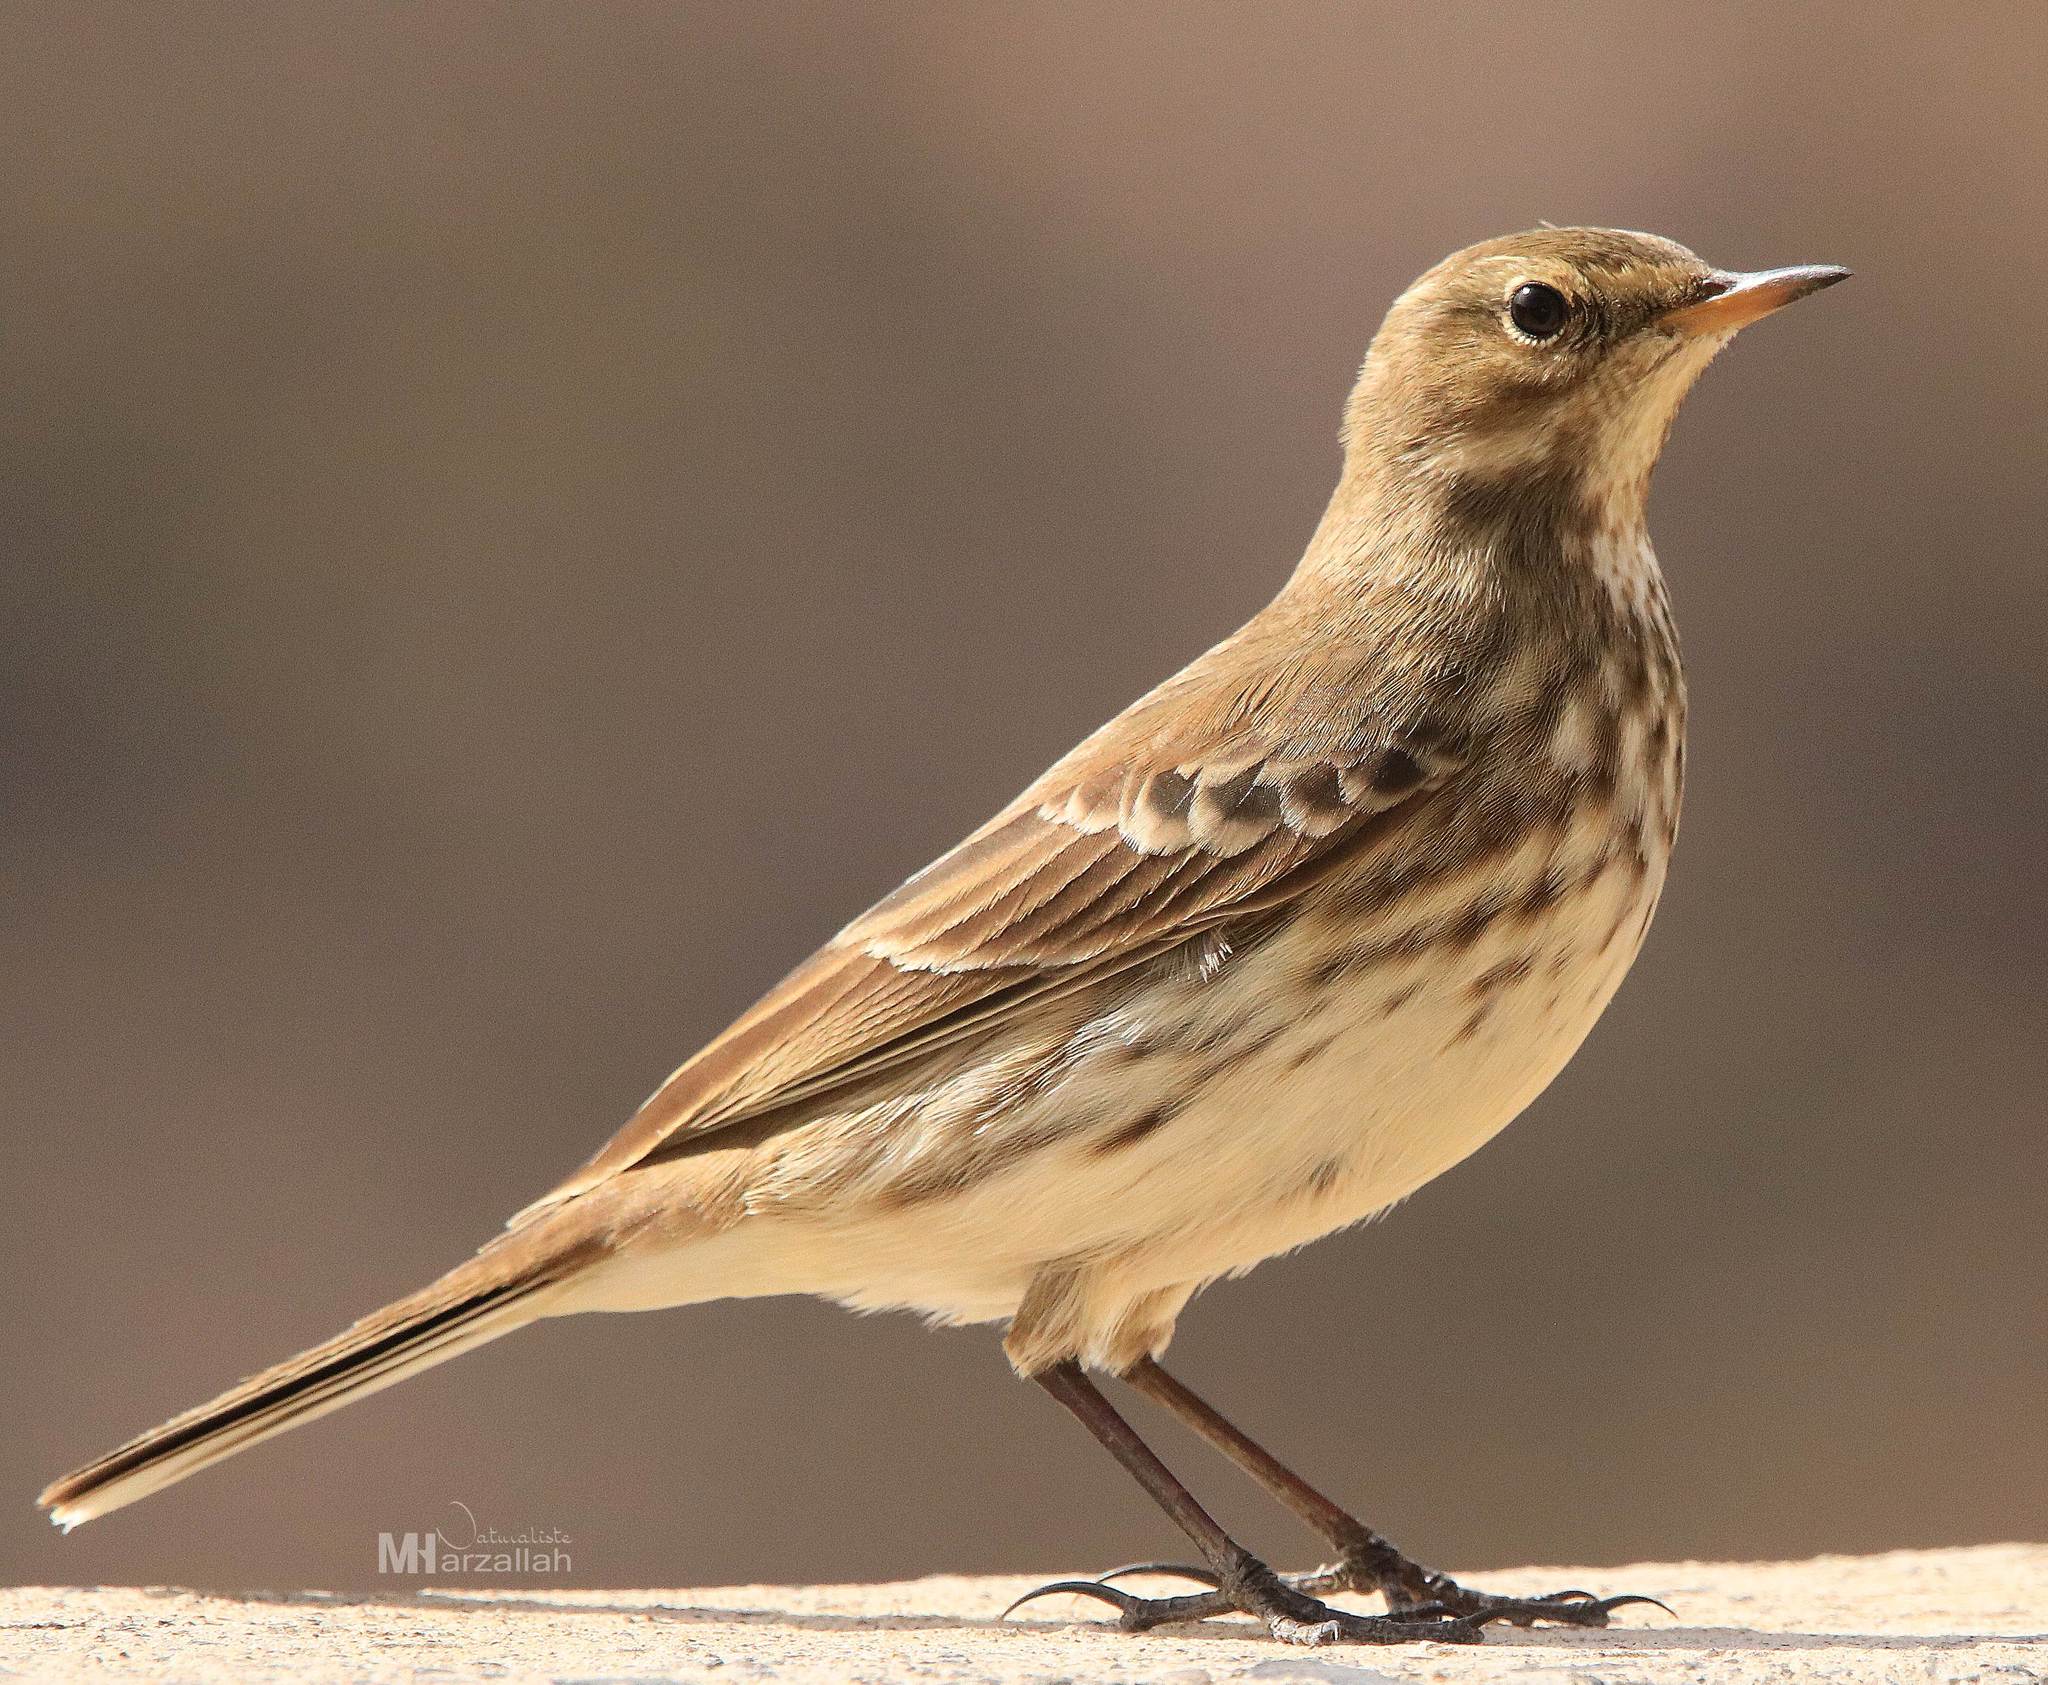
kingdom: Animalia
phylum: Chordata
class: Aves
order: Passeriformes
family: Motacillidae
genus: Anthus
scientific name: Anthus spinoletta
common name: Water pipit
